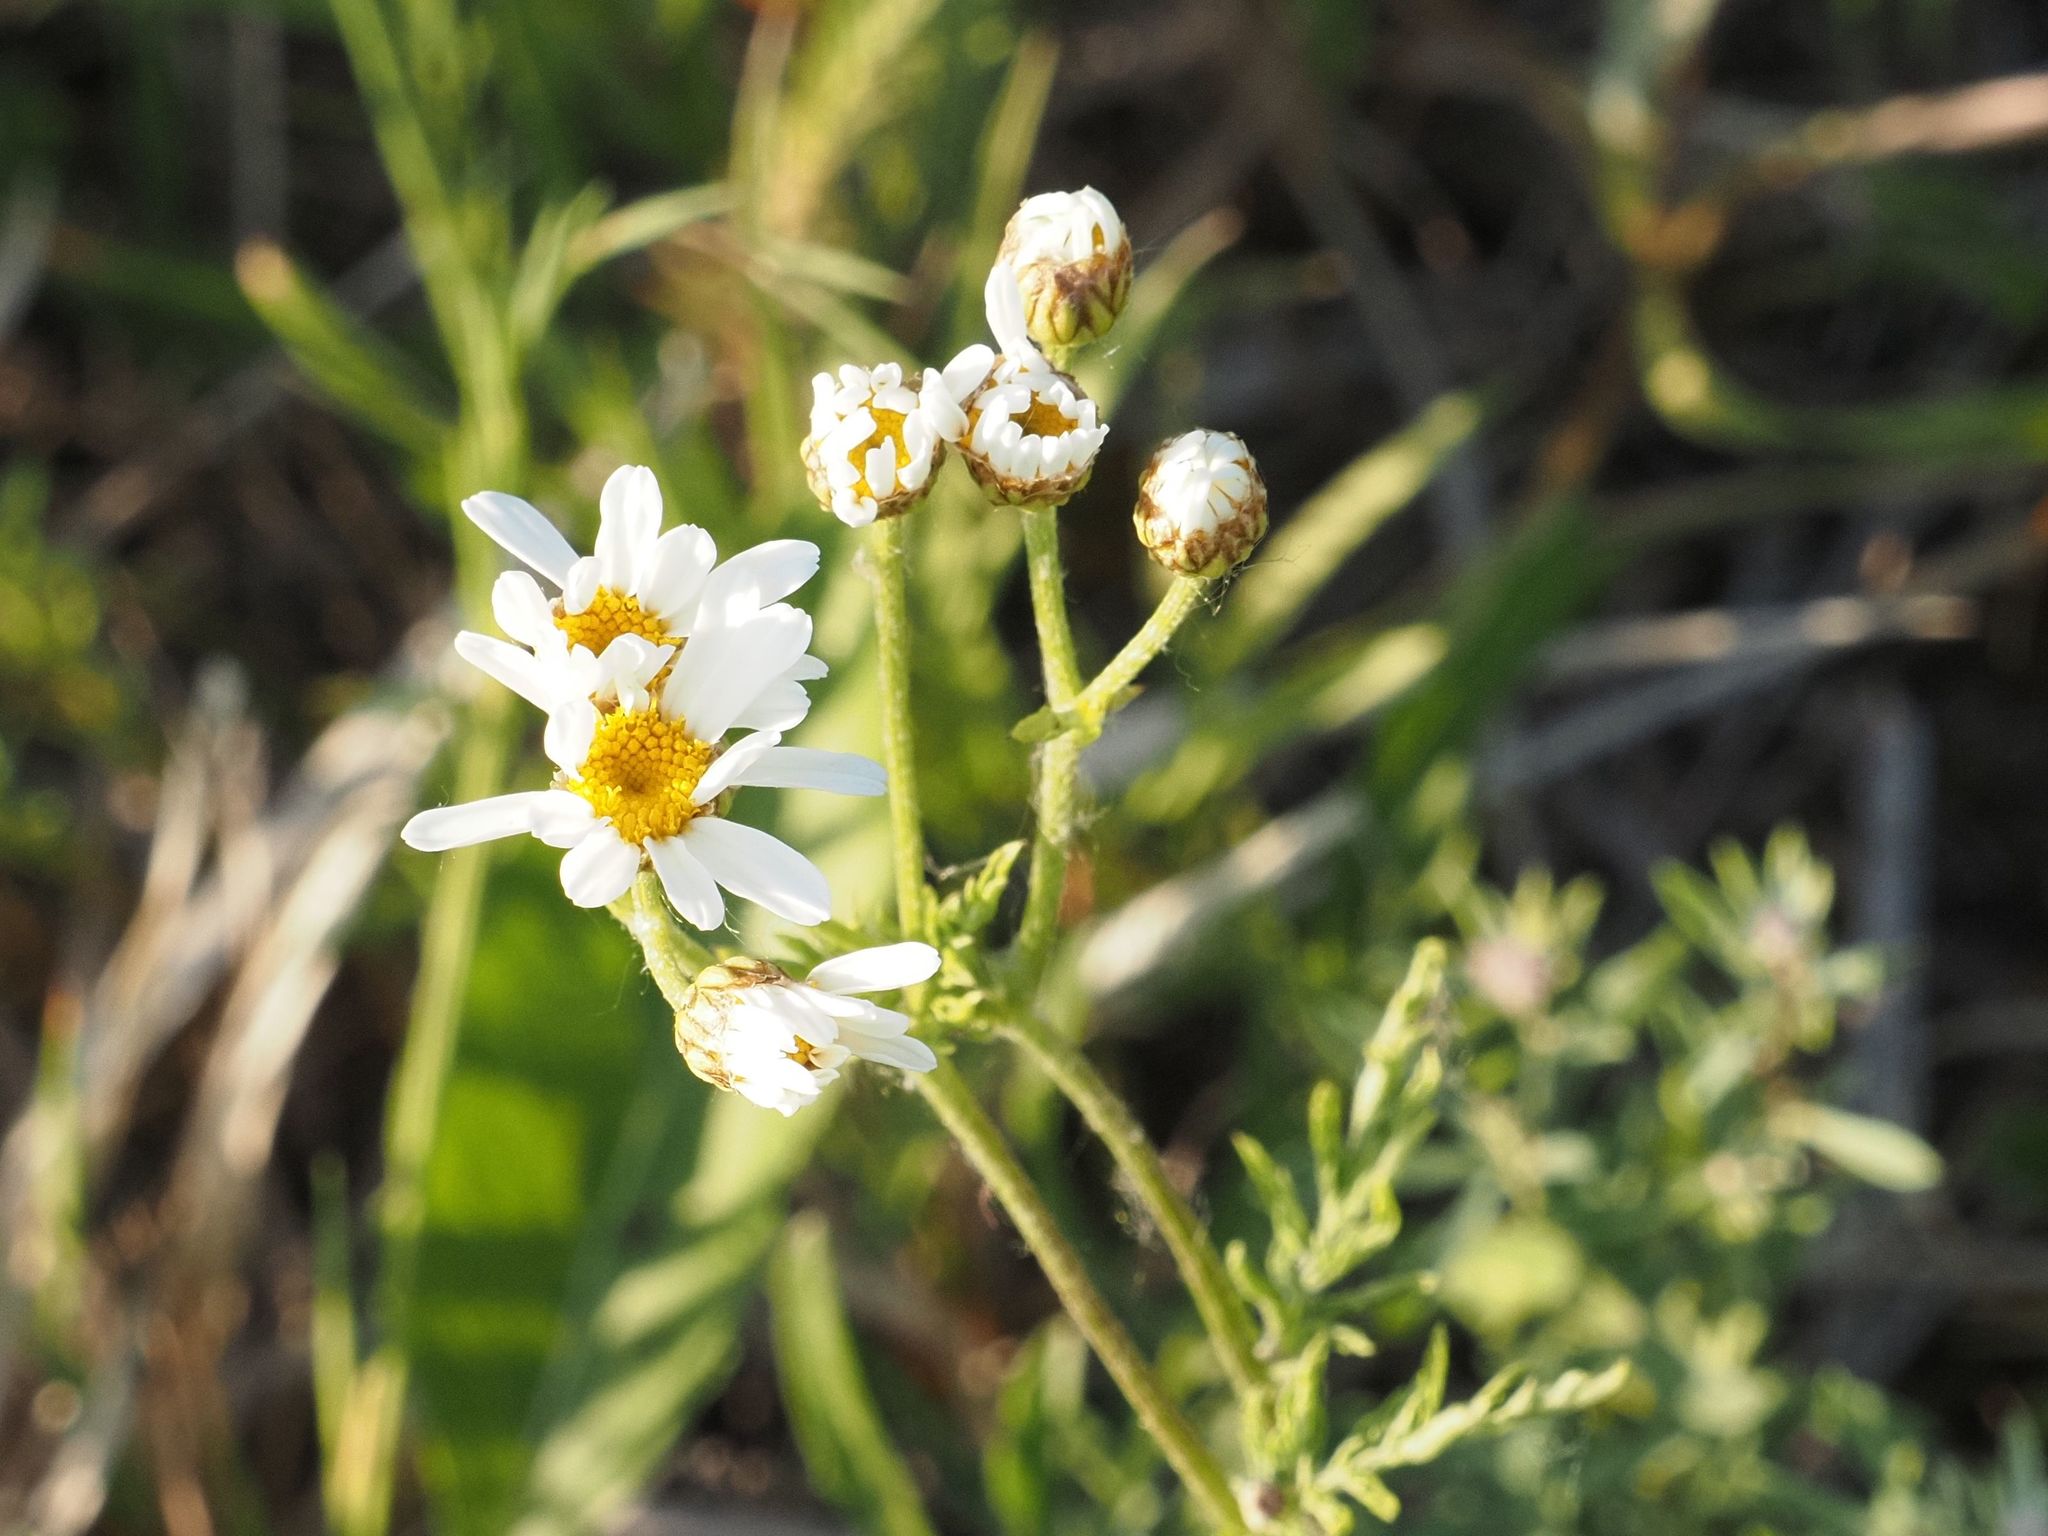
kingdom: Plantae
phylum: Tracheophyta
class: Magnoliopsida
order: Asterales
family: Asteraceae
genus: Tanacetum
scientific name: Tanacetum corymbosum
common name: Scentless feverfew
